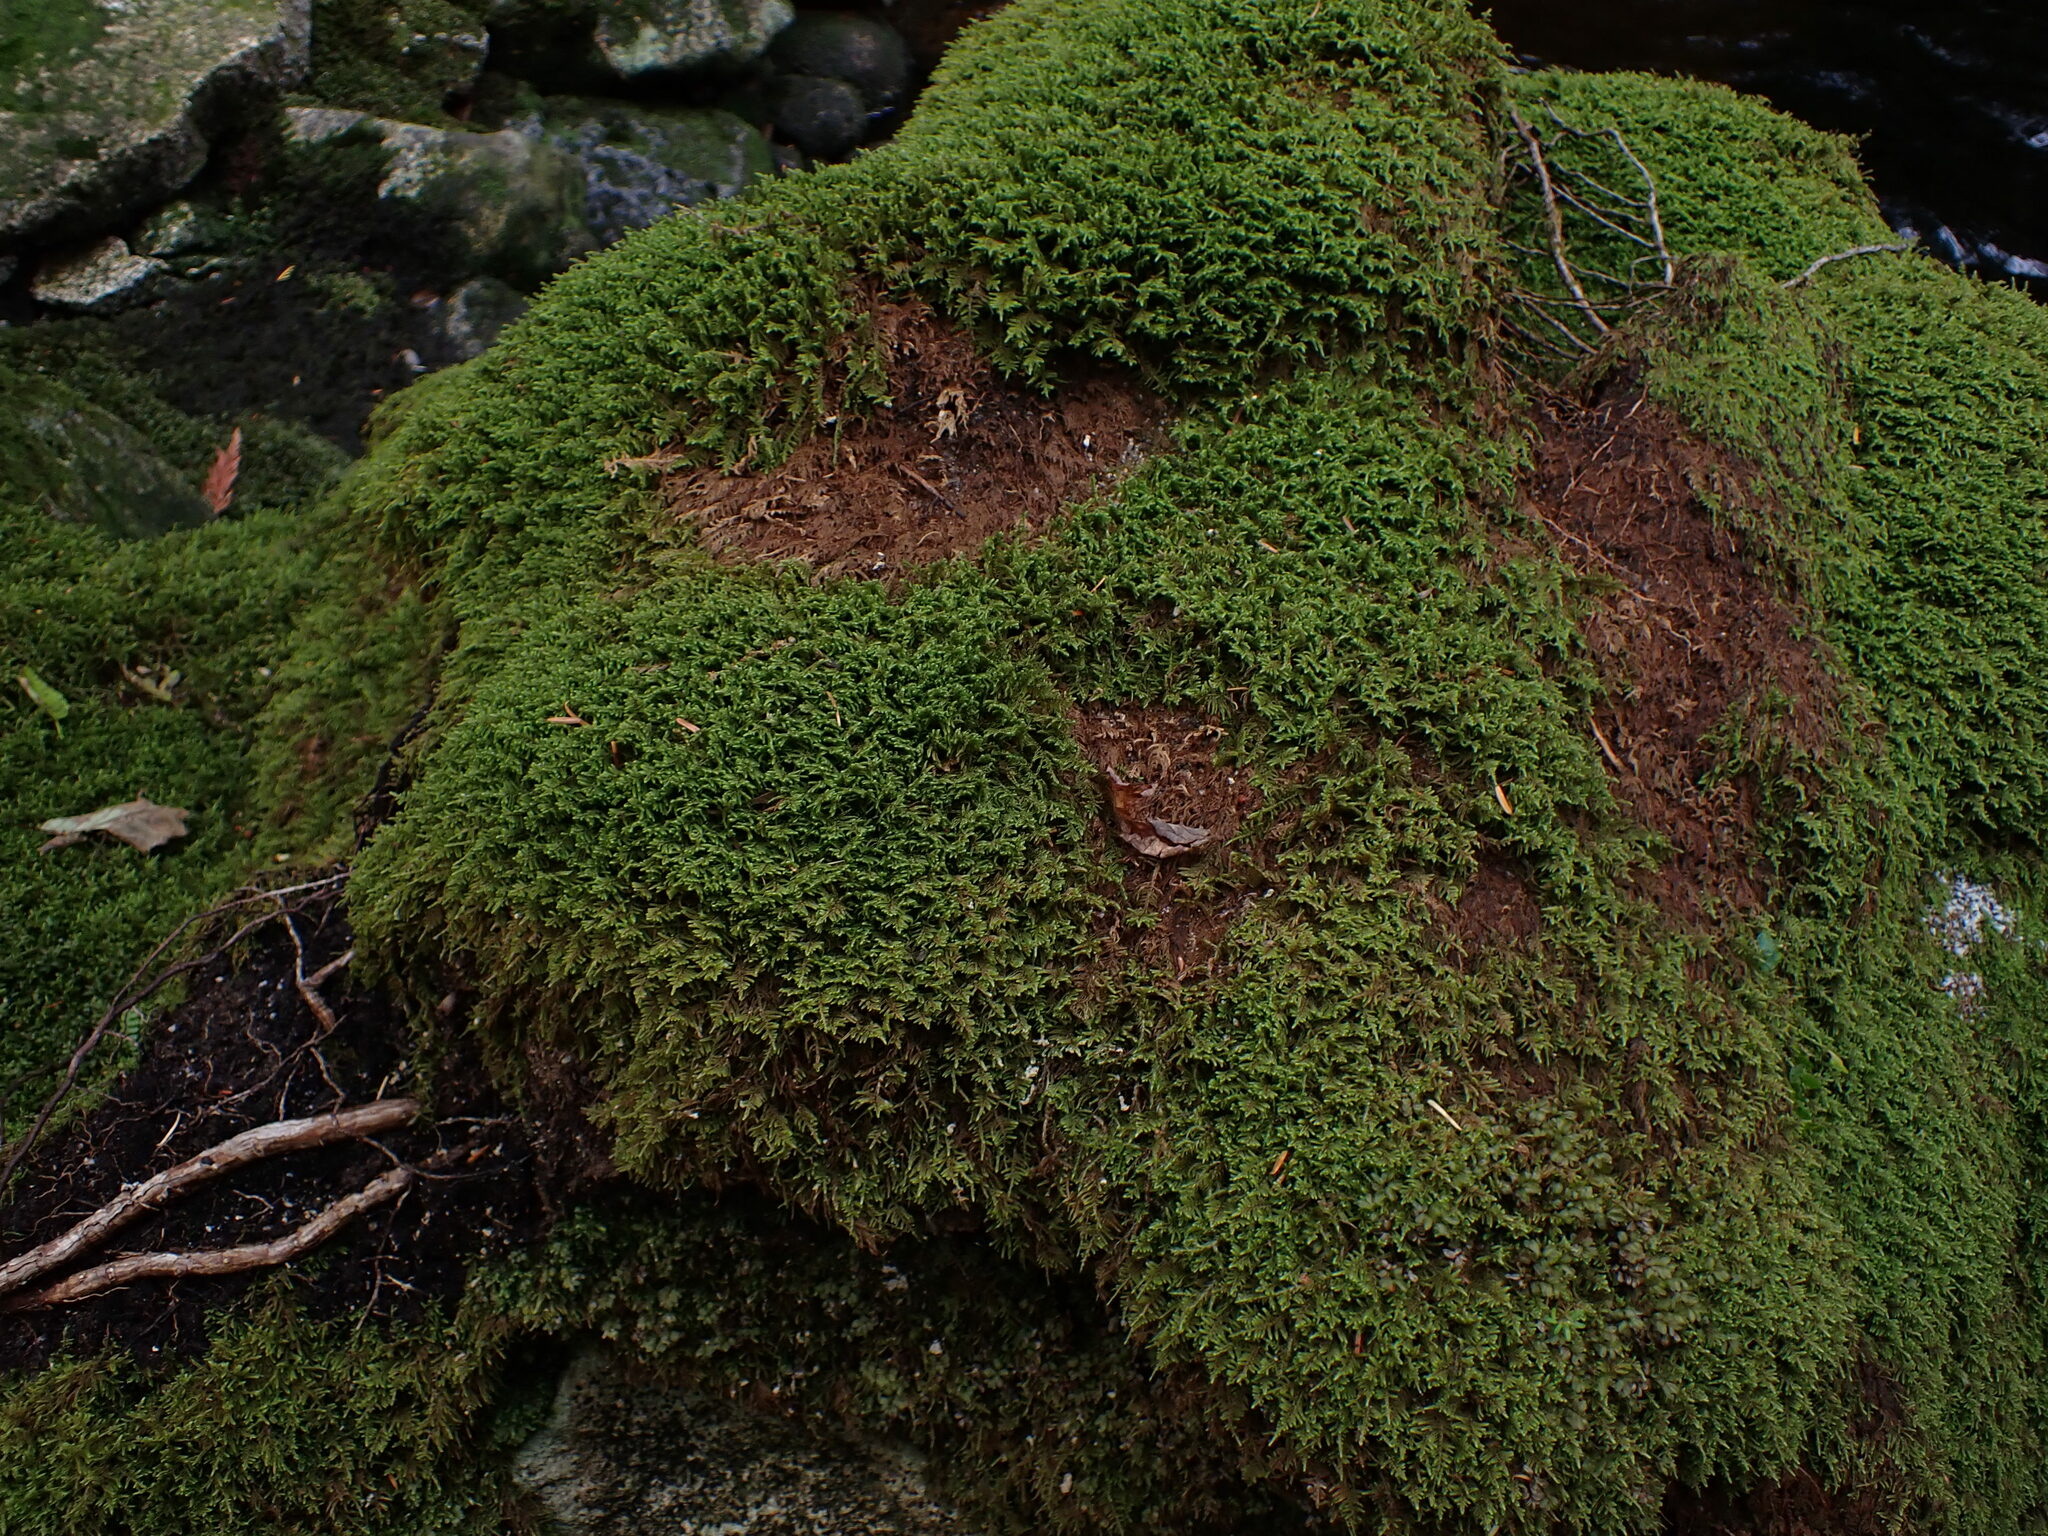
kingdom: Plantae
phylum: Bryophyta
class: Bryopsida
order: Hypnales
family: Pylaisiaceae
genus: Calliergonellopsis
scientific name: Calliergonellopsis dieckii
